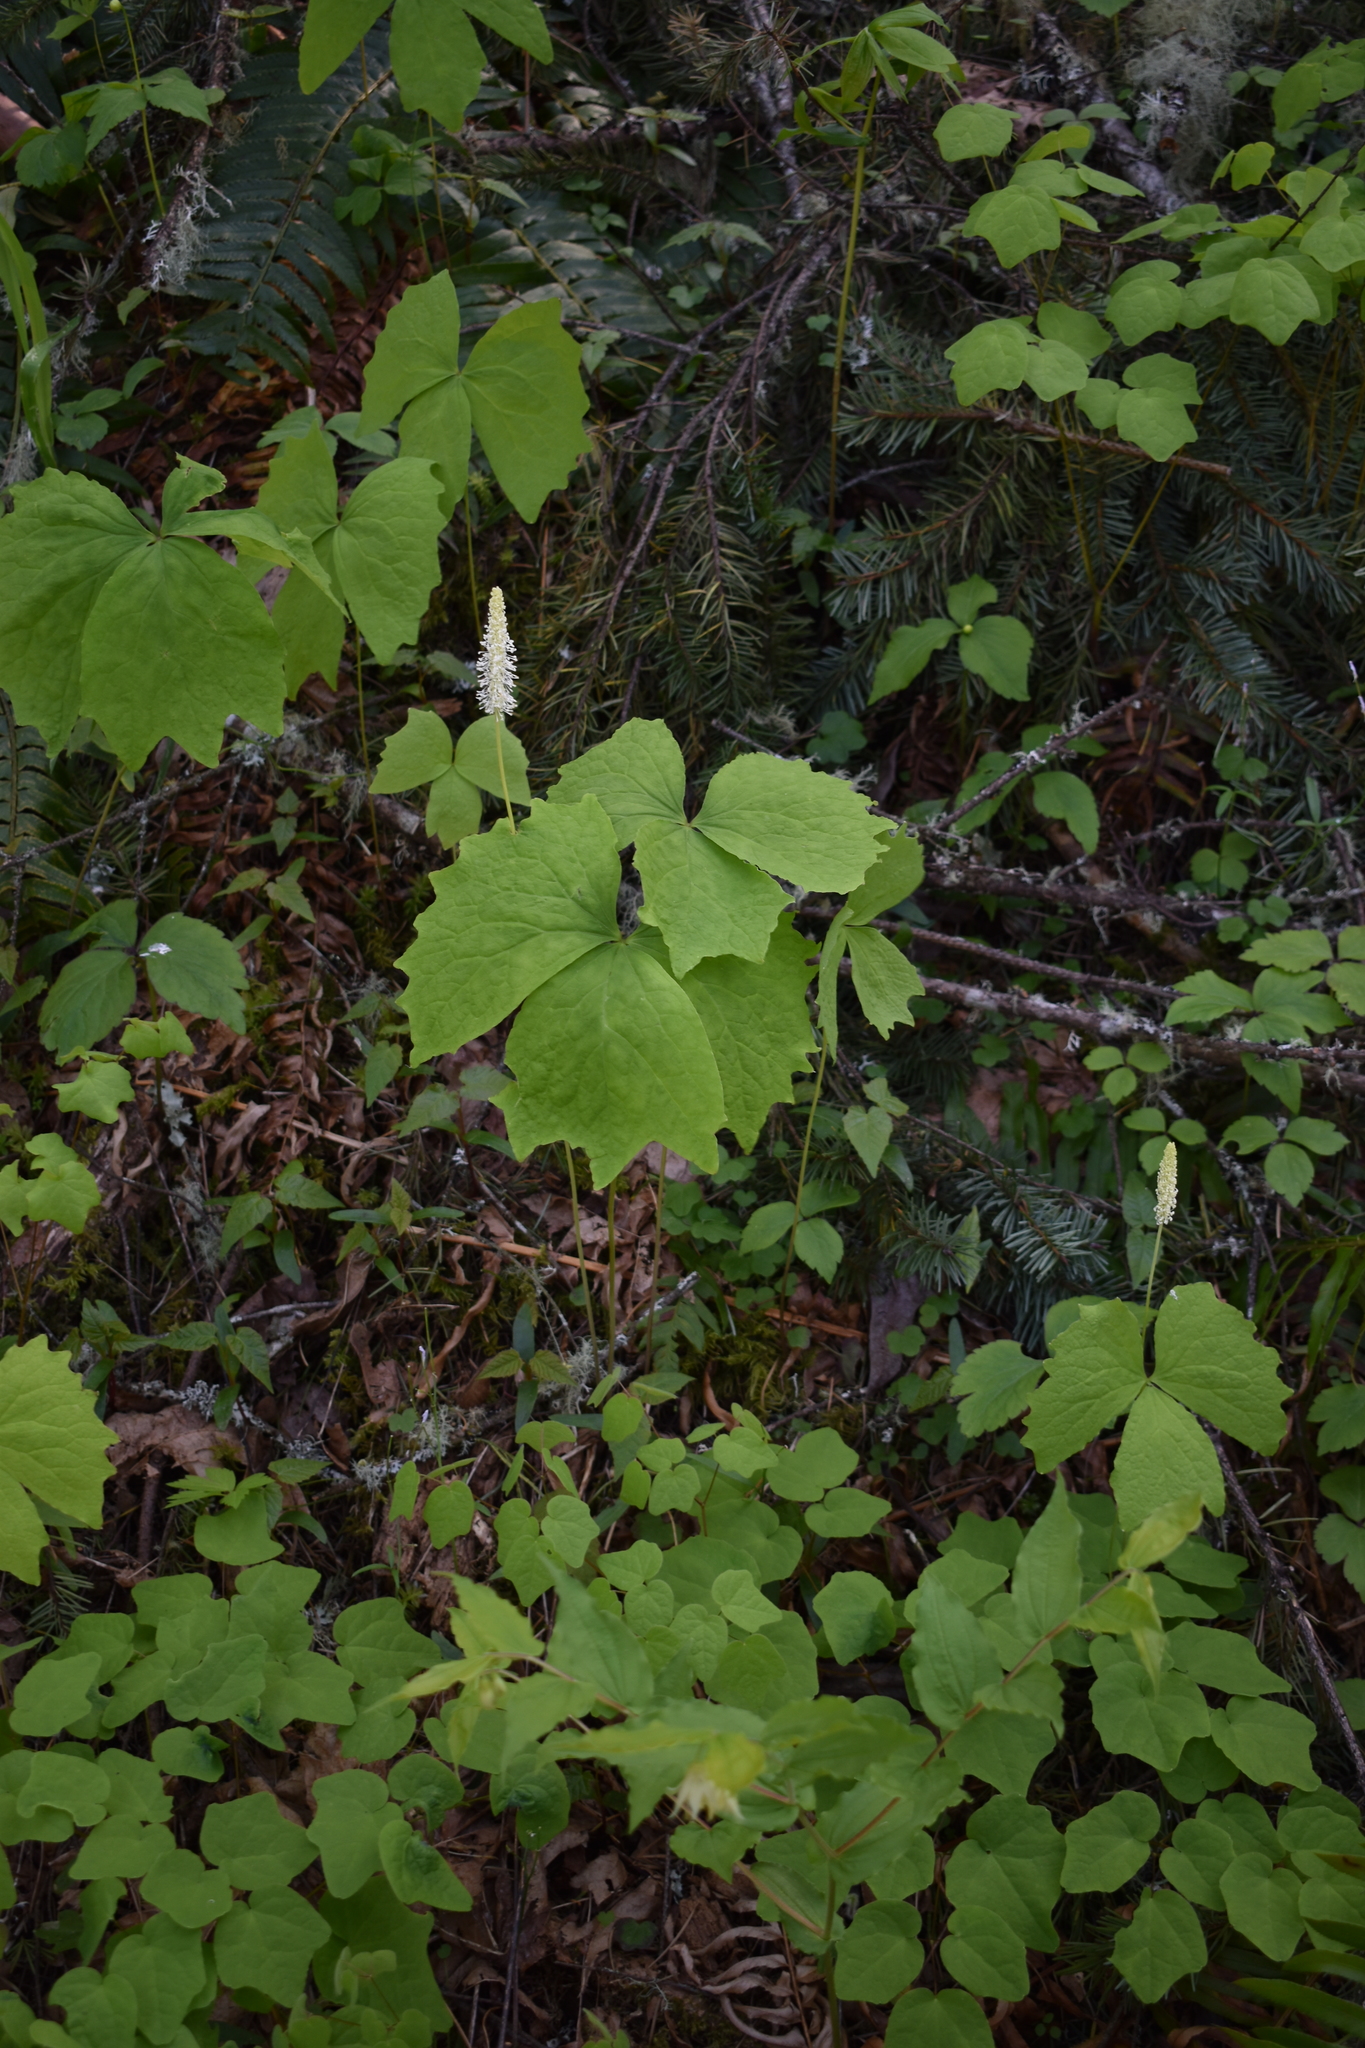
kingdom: Plantae
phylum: Tracheophyta
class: Magnoliopsida
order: Ranunculales
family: Berberidaceae
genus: Achlys
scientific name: Achlys triphylla
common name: Vanilla-leaf
